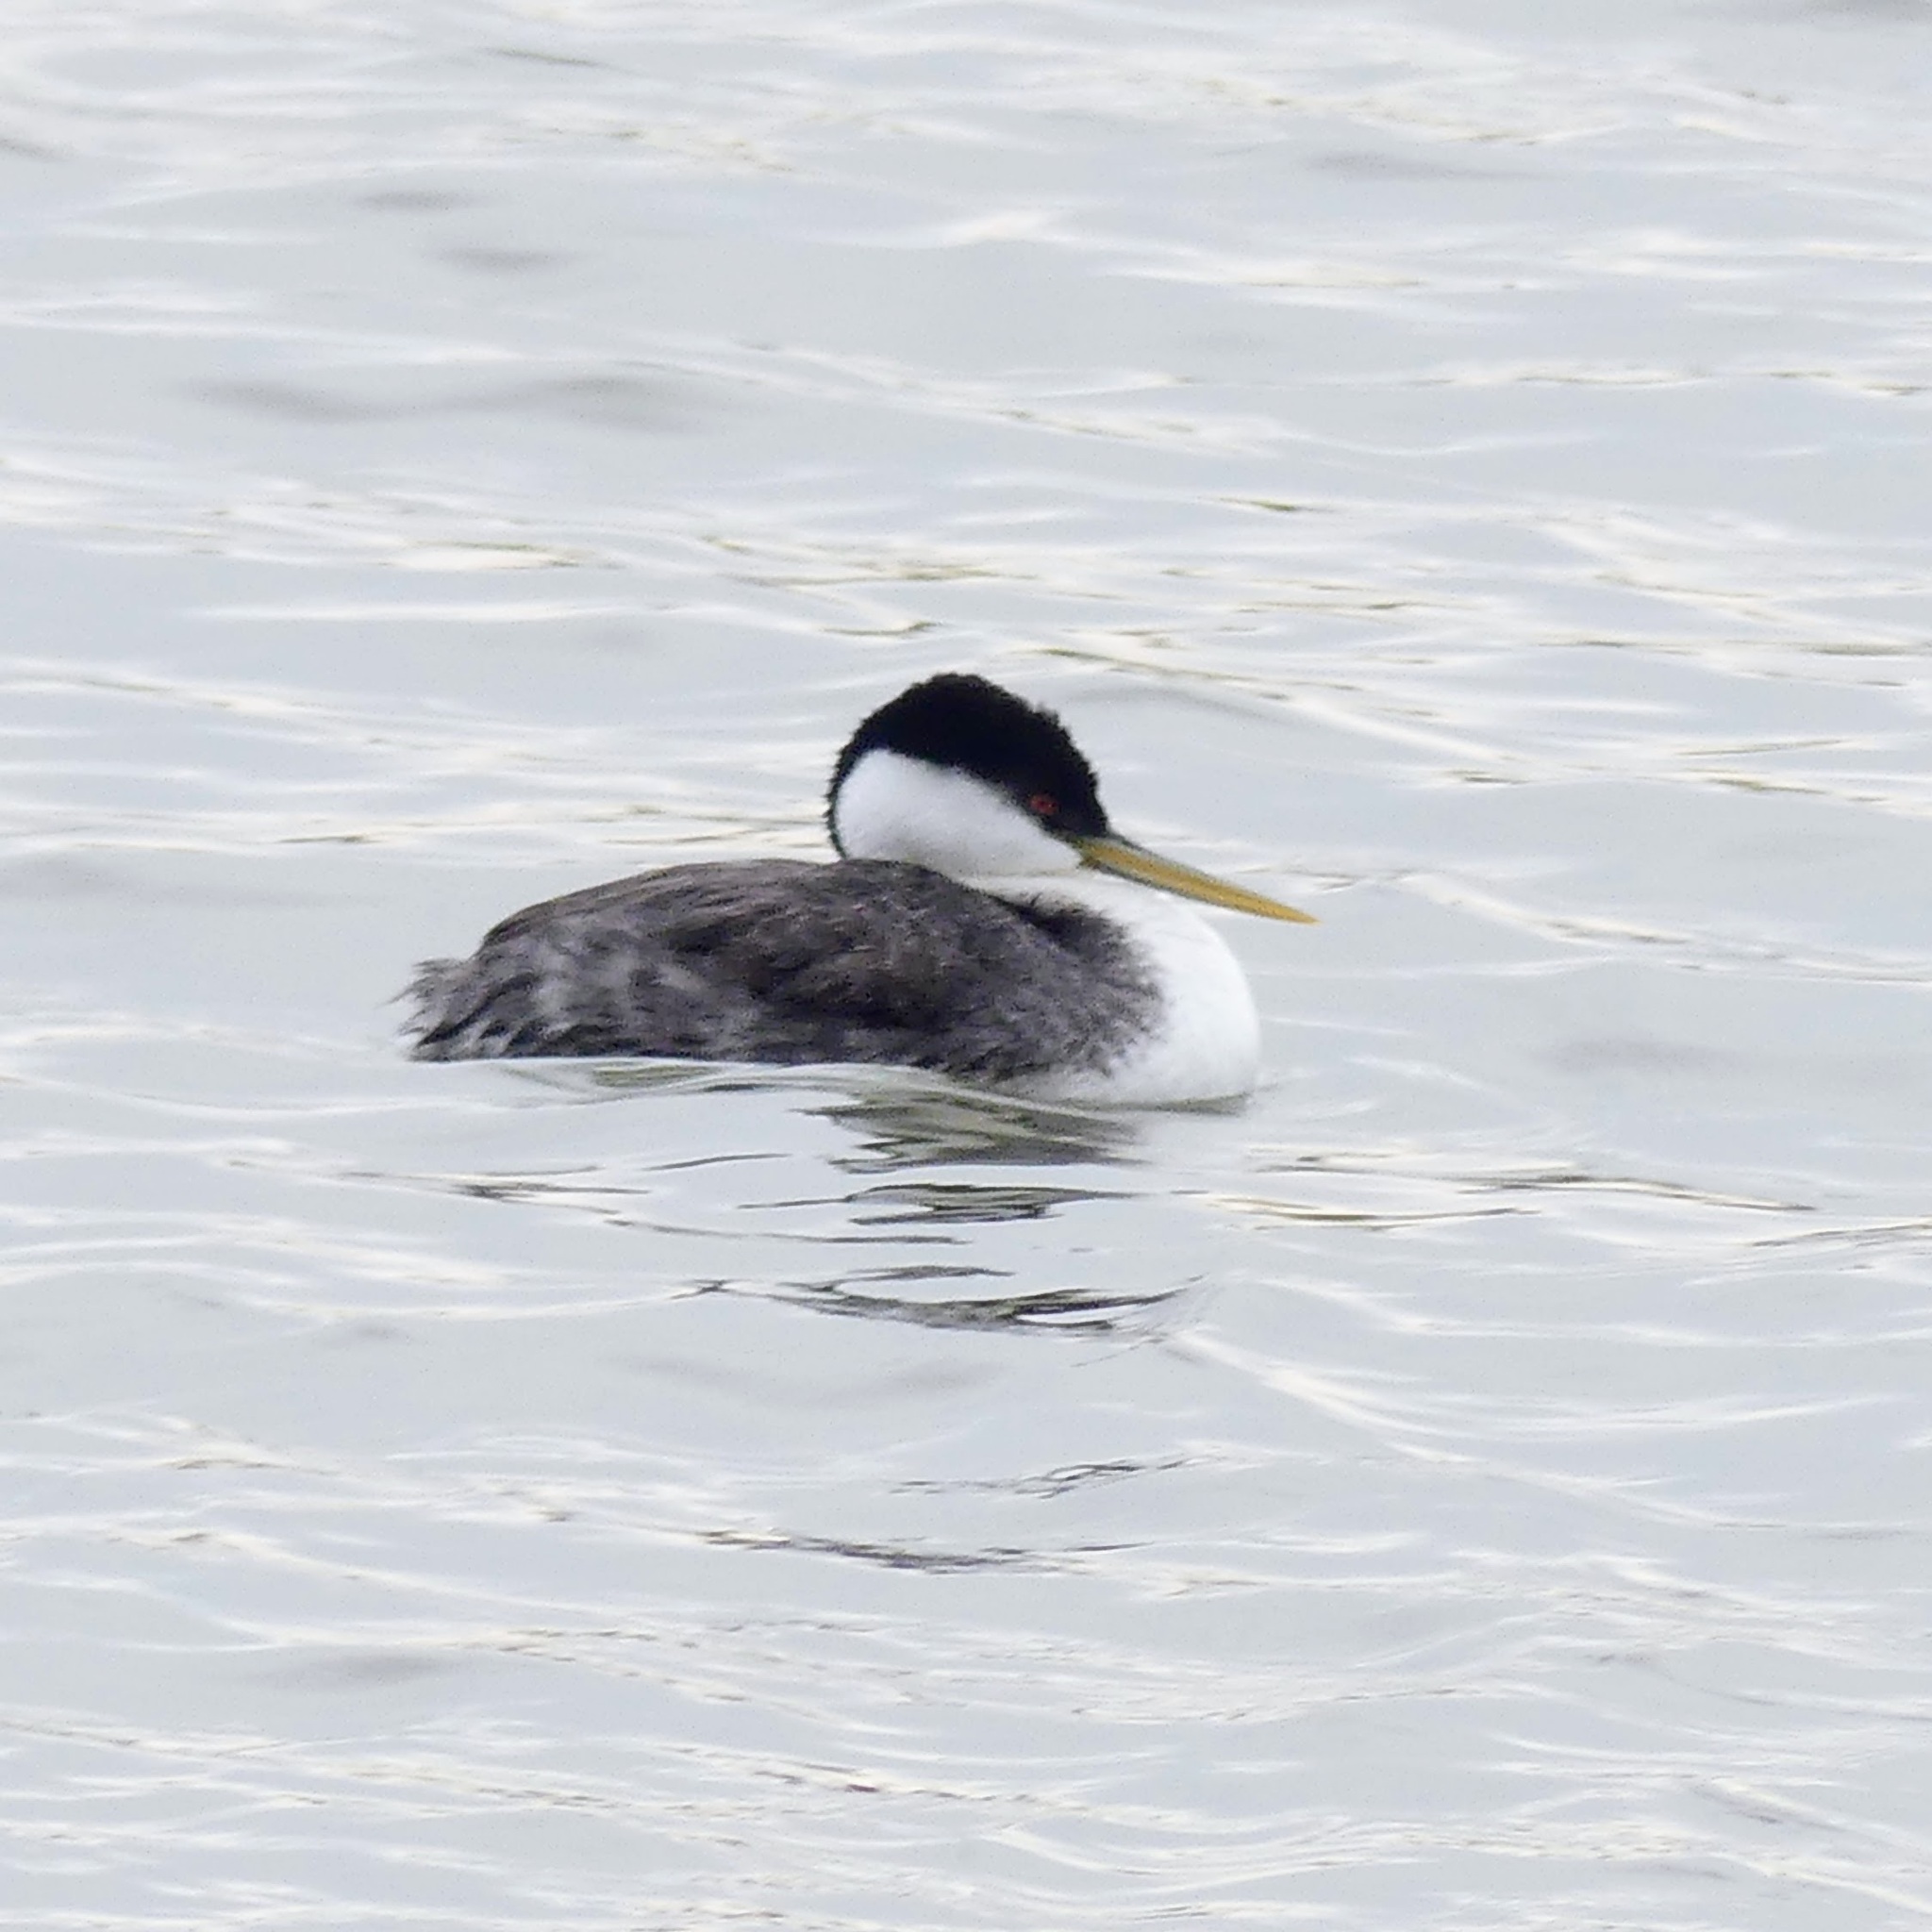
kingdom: Animalia
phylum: Chordata
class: Aves
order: Podicipediformes
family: Podicipedidae
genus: Aechmophorus
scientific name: Aechmophorus occidentalis
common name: Western grebe
